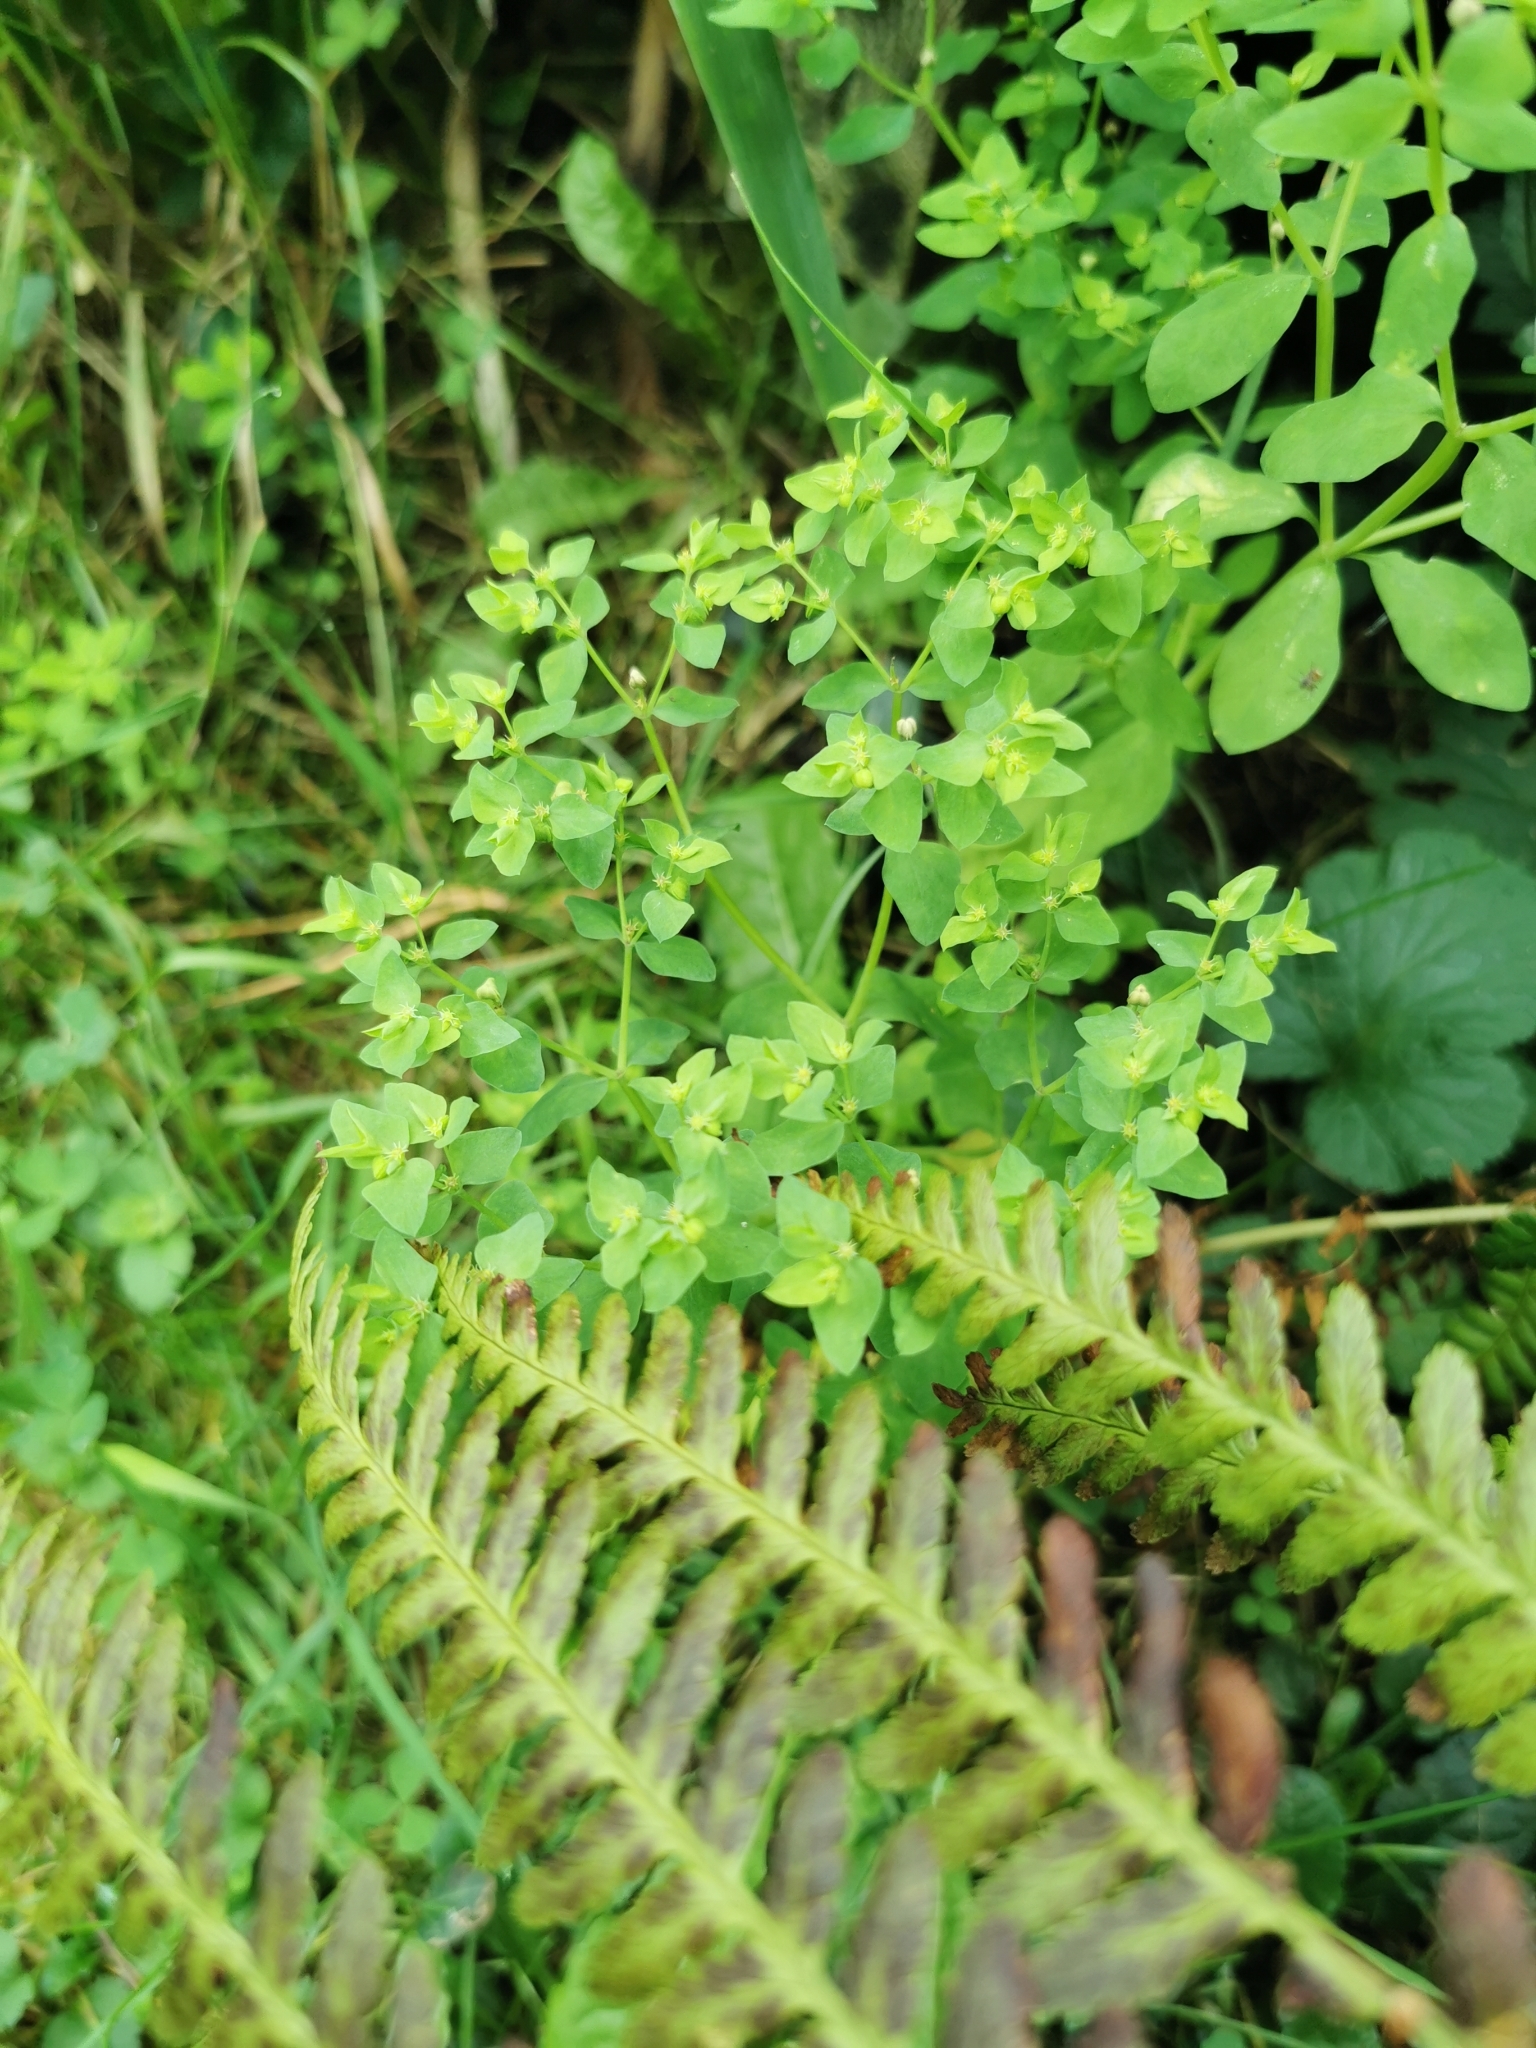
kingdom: Plantae
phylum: Tracheophyta
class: Magnoliopsida
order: Malpighiales
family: Euphorbiaceae
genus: Euphorbia
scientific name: Euphorbia peplus
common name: Petty spurge
